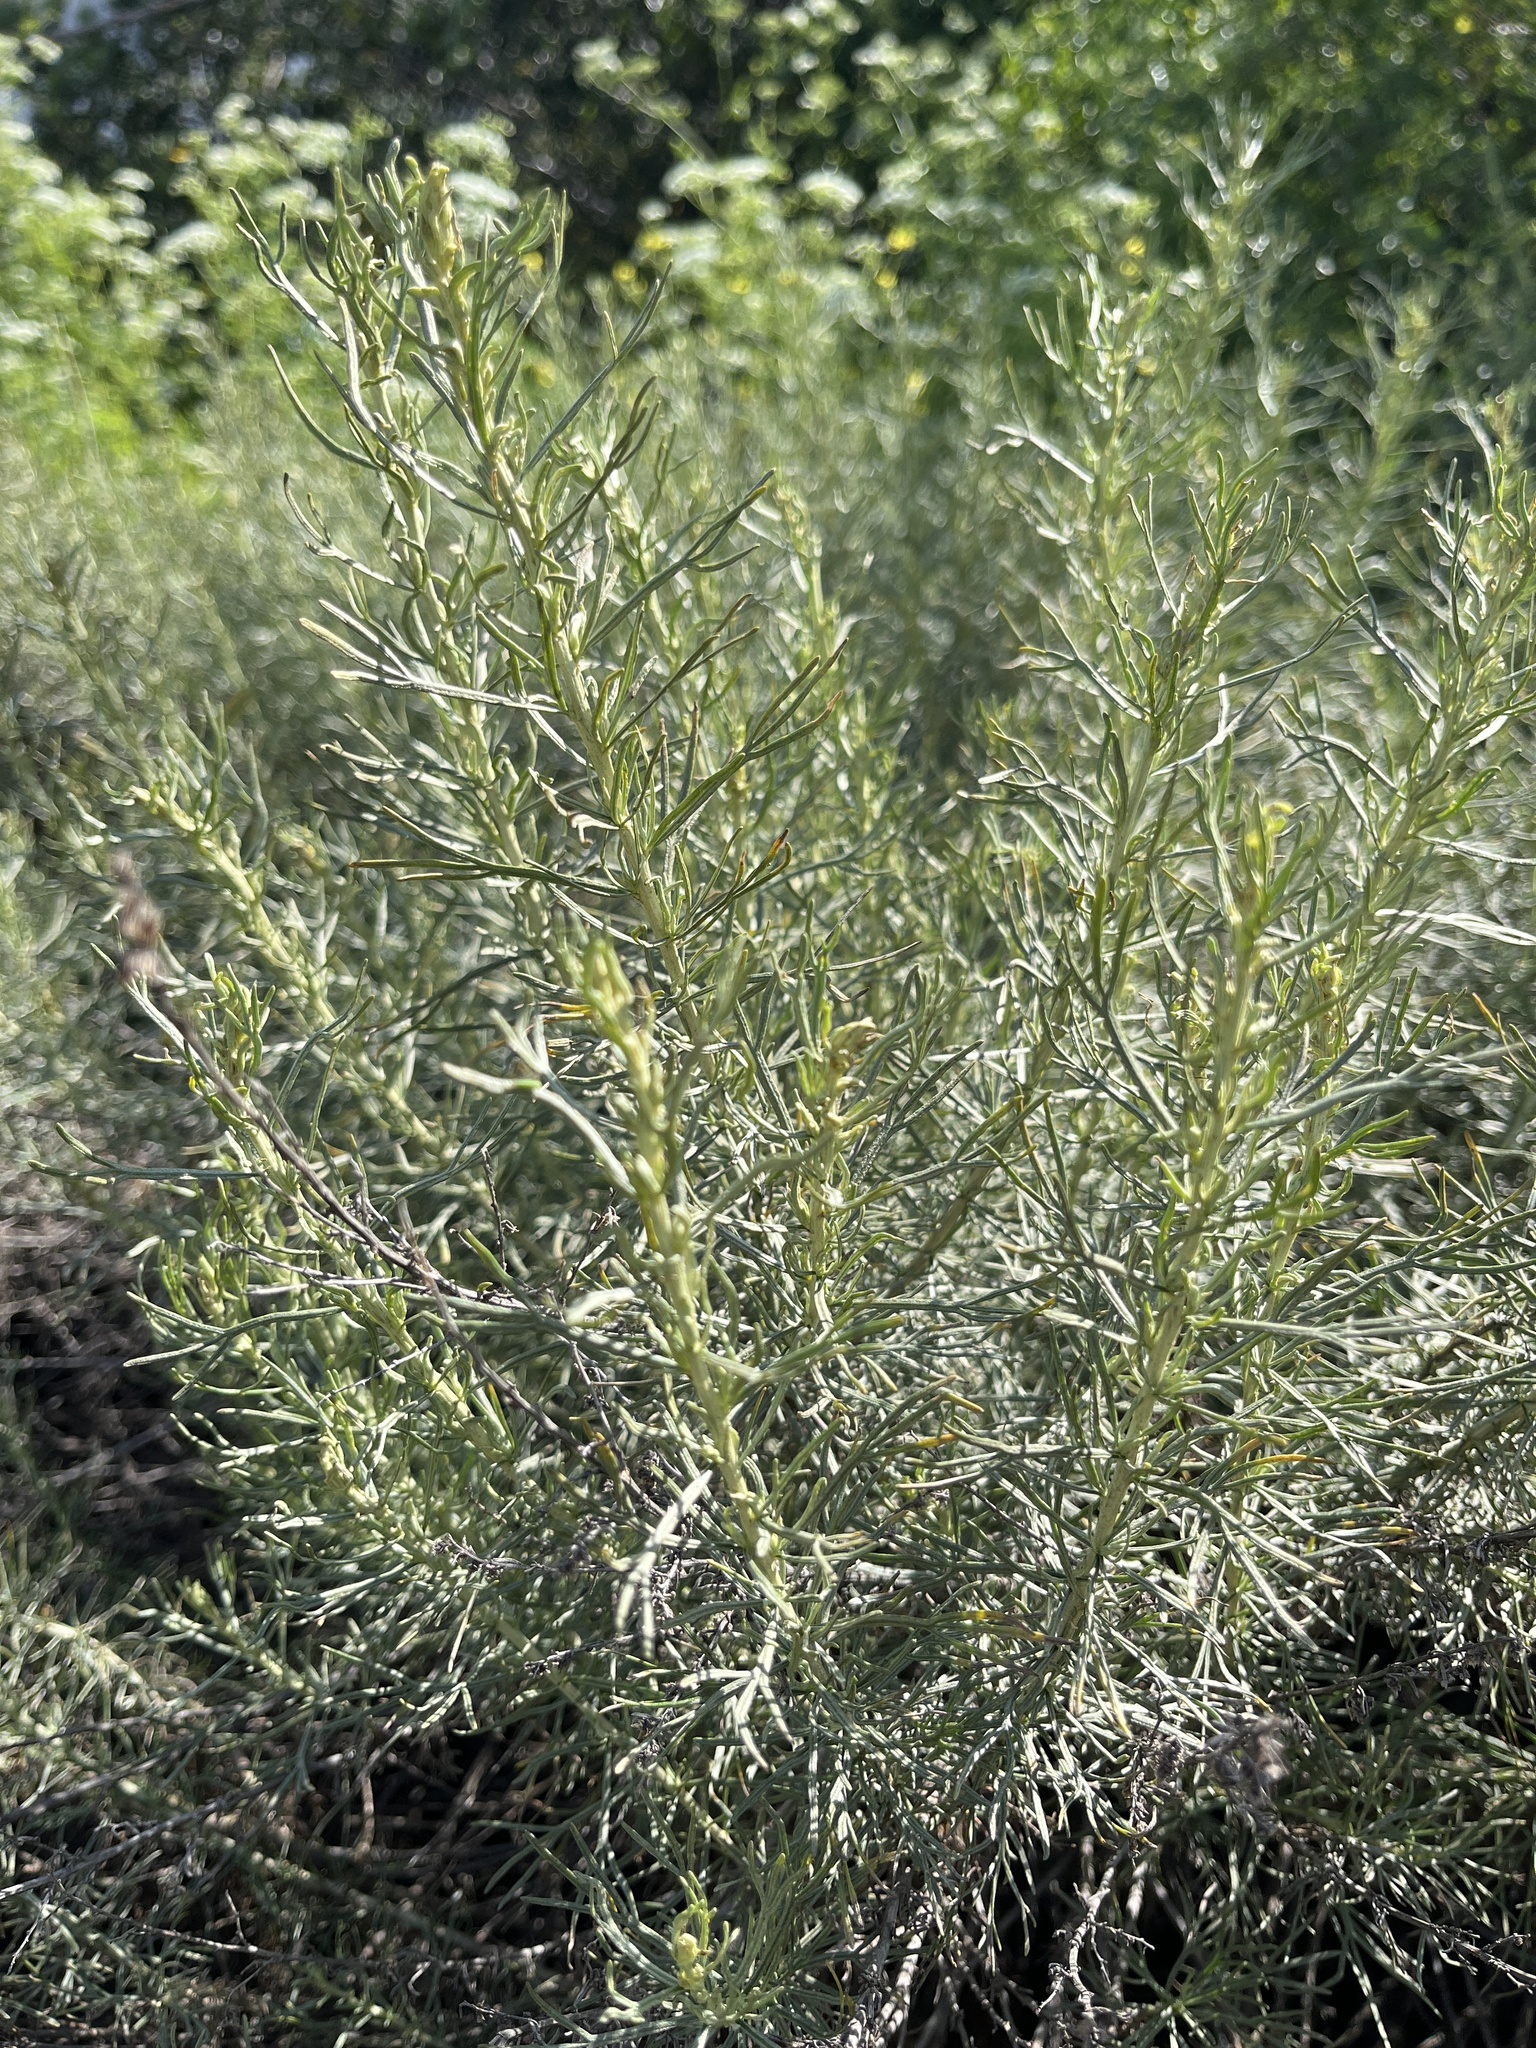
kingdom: Plantae
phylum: Tracheophyta
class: Magnoliopsida
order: Asterales
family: Asteraceae
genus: Artemisia
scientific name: Artemisia californica
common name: California sagebrush
